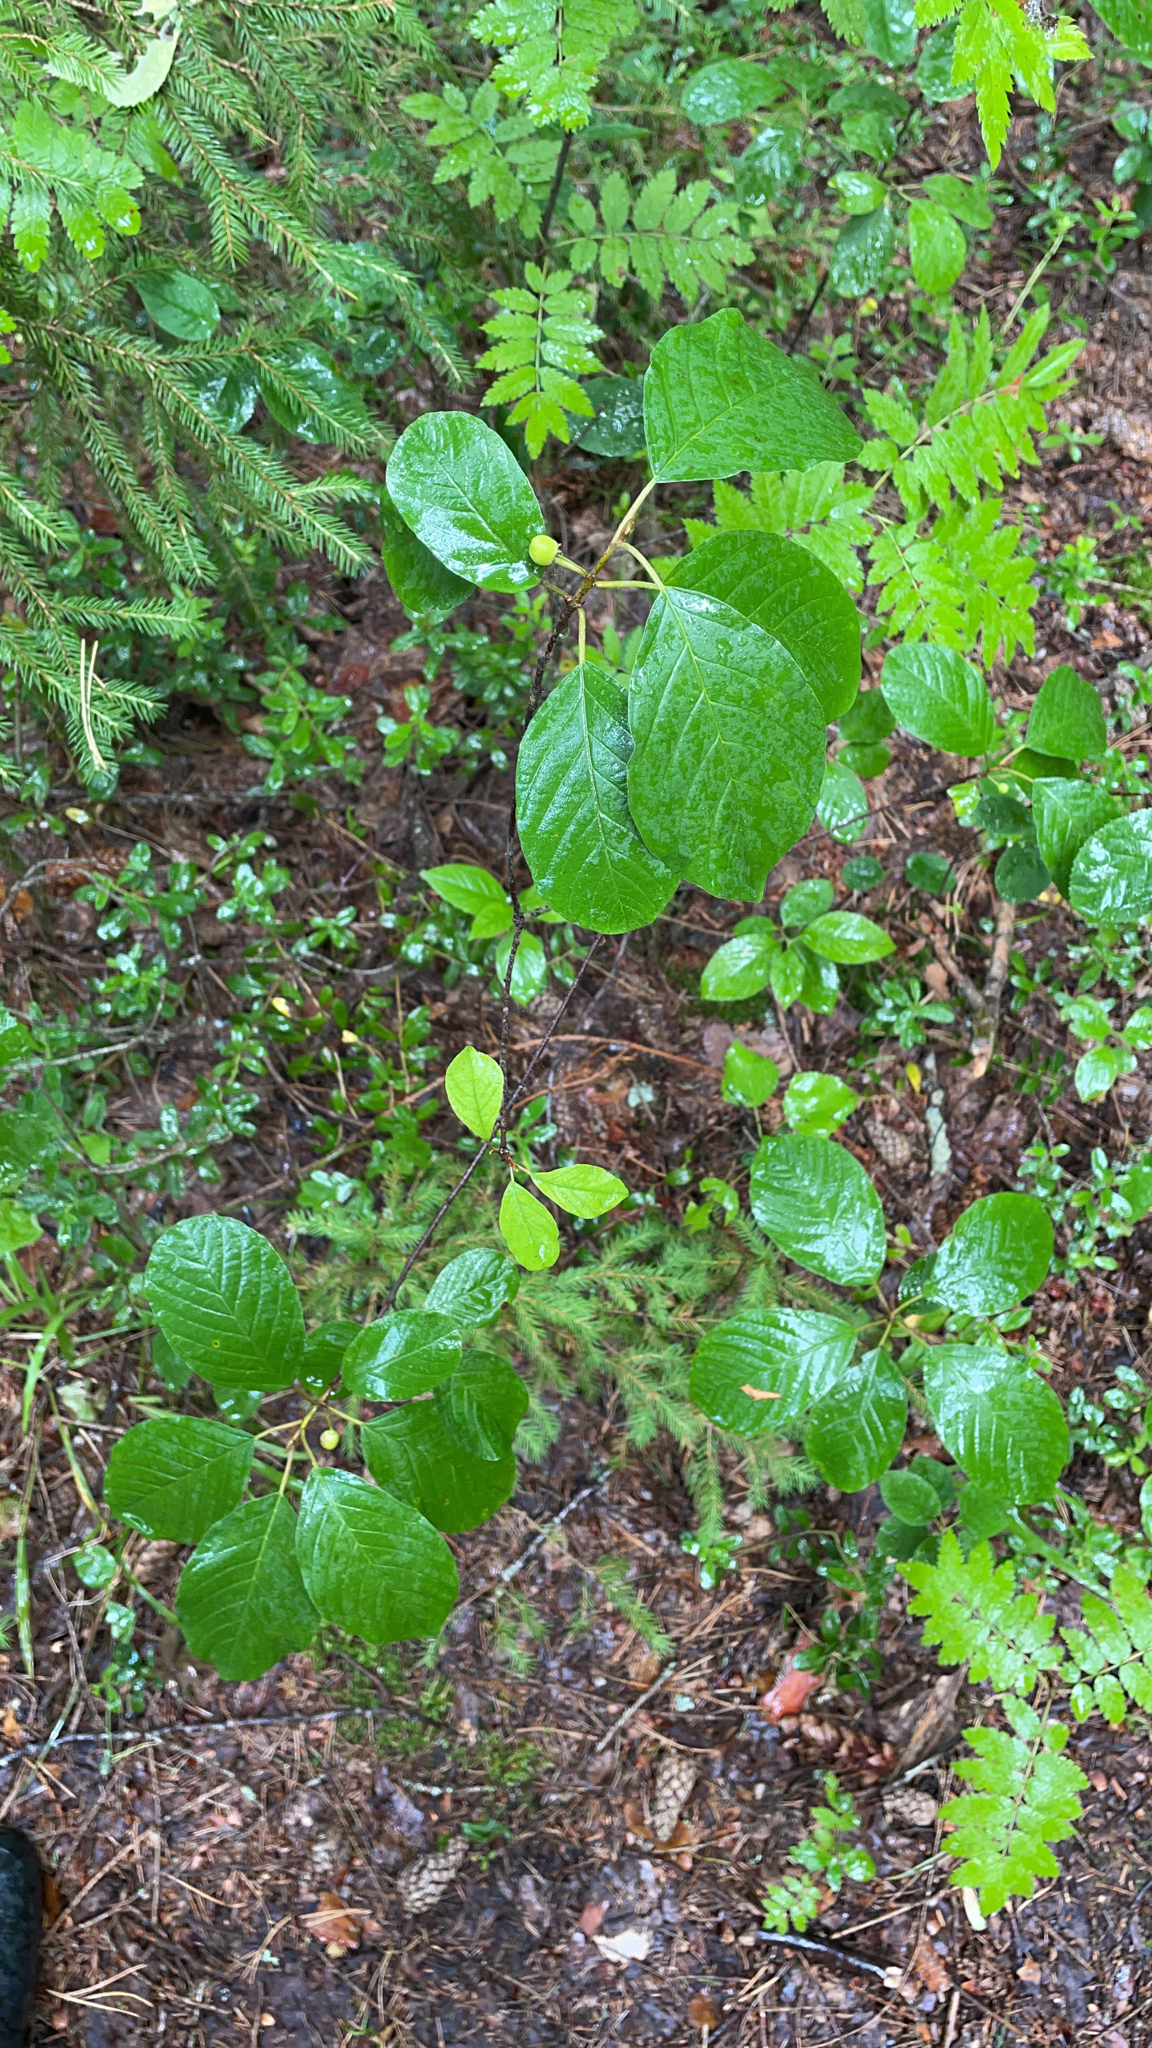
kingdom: Plantae
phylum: Tracheophyta
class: Magnoliopsida
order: Rosales
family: Rhamnaceae
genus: Frangula
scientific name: Frangula alnus
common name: Alder buckthorn
